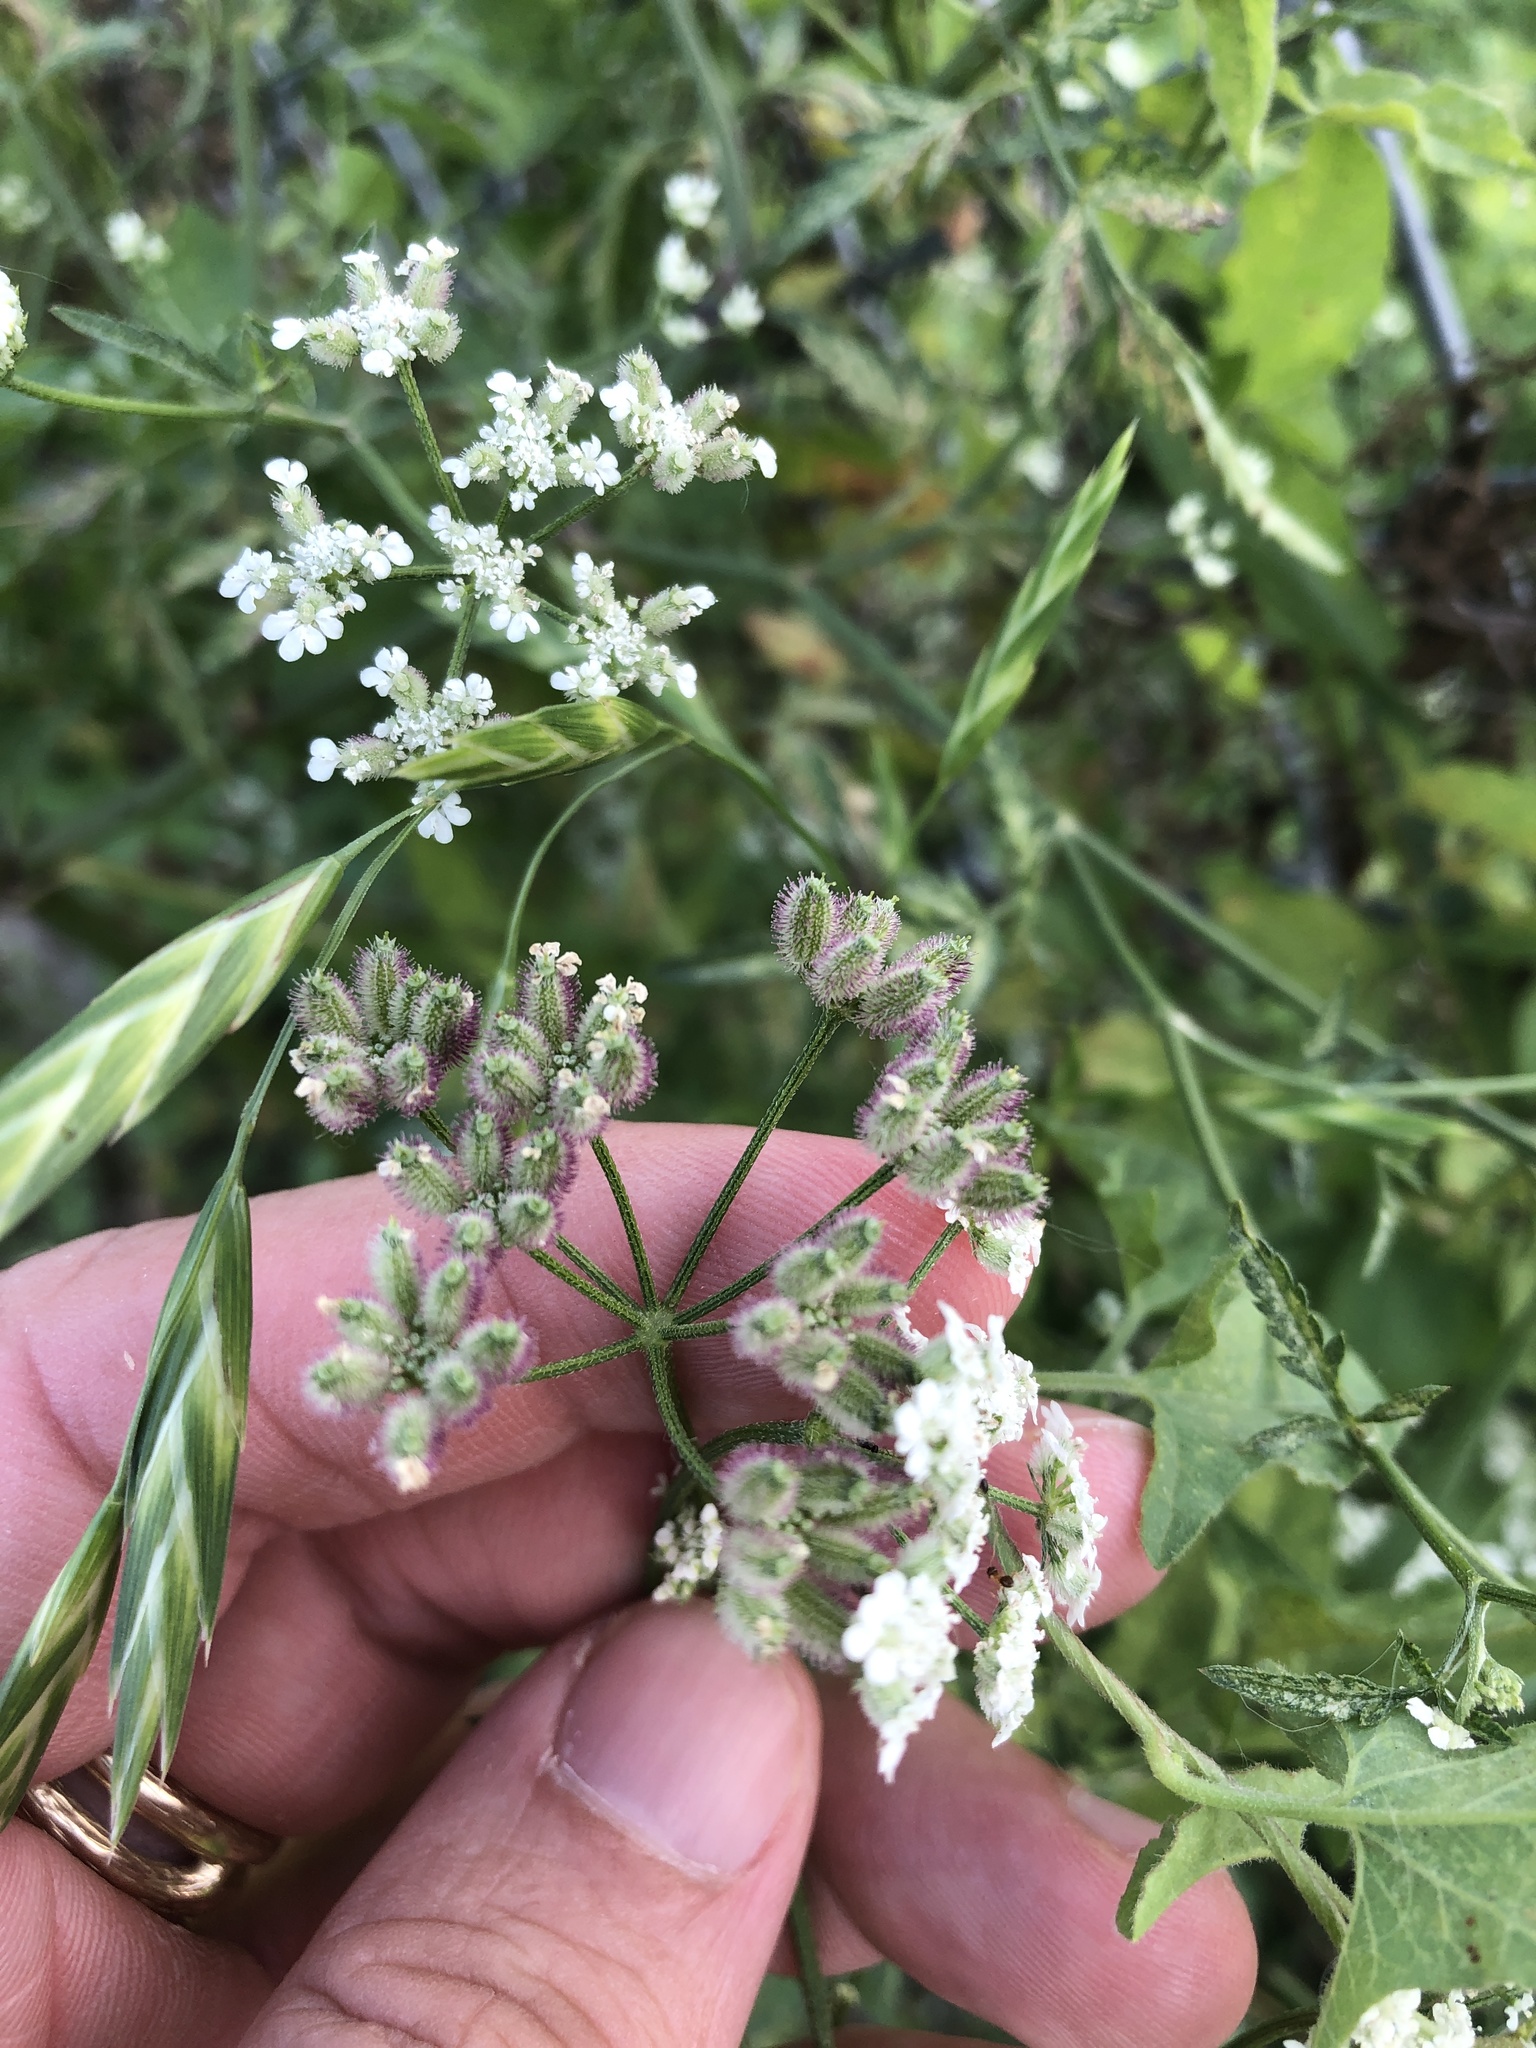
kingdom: Plantae
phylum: Tracheophyta
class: Magnoliopsida
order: Apiales
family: Apiaceae
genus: Torilis
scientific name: Torilis arvensis
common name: Spreading hedge-parsley
